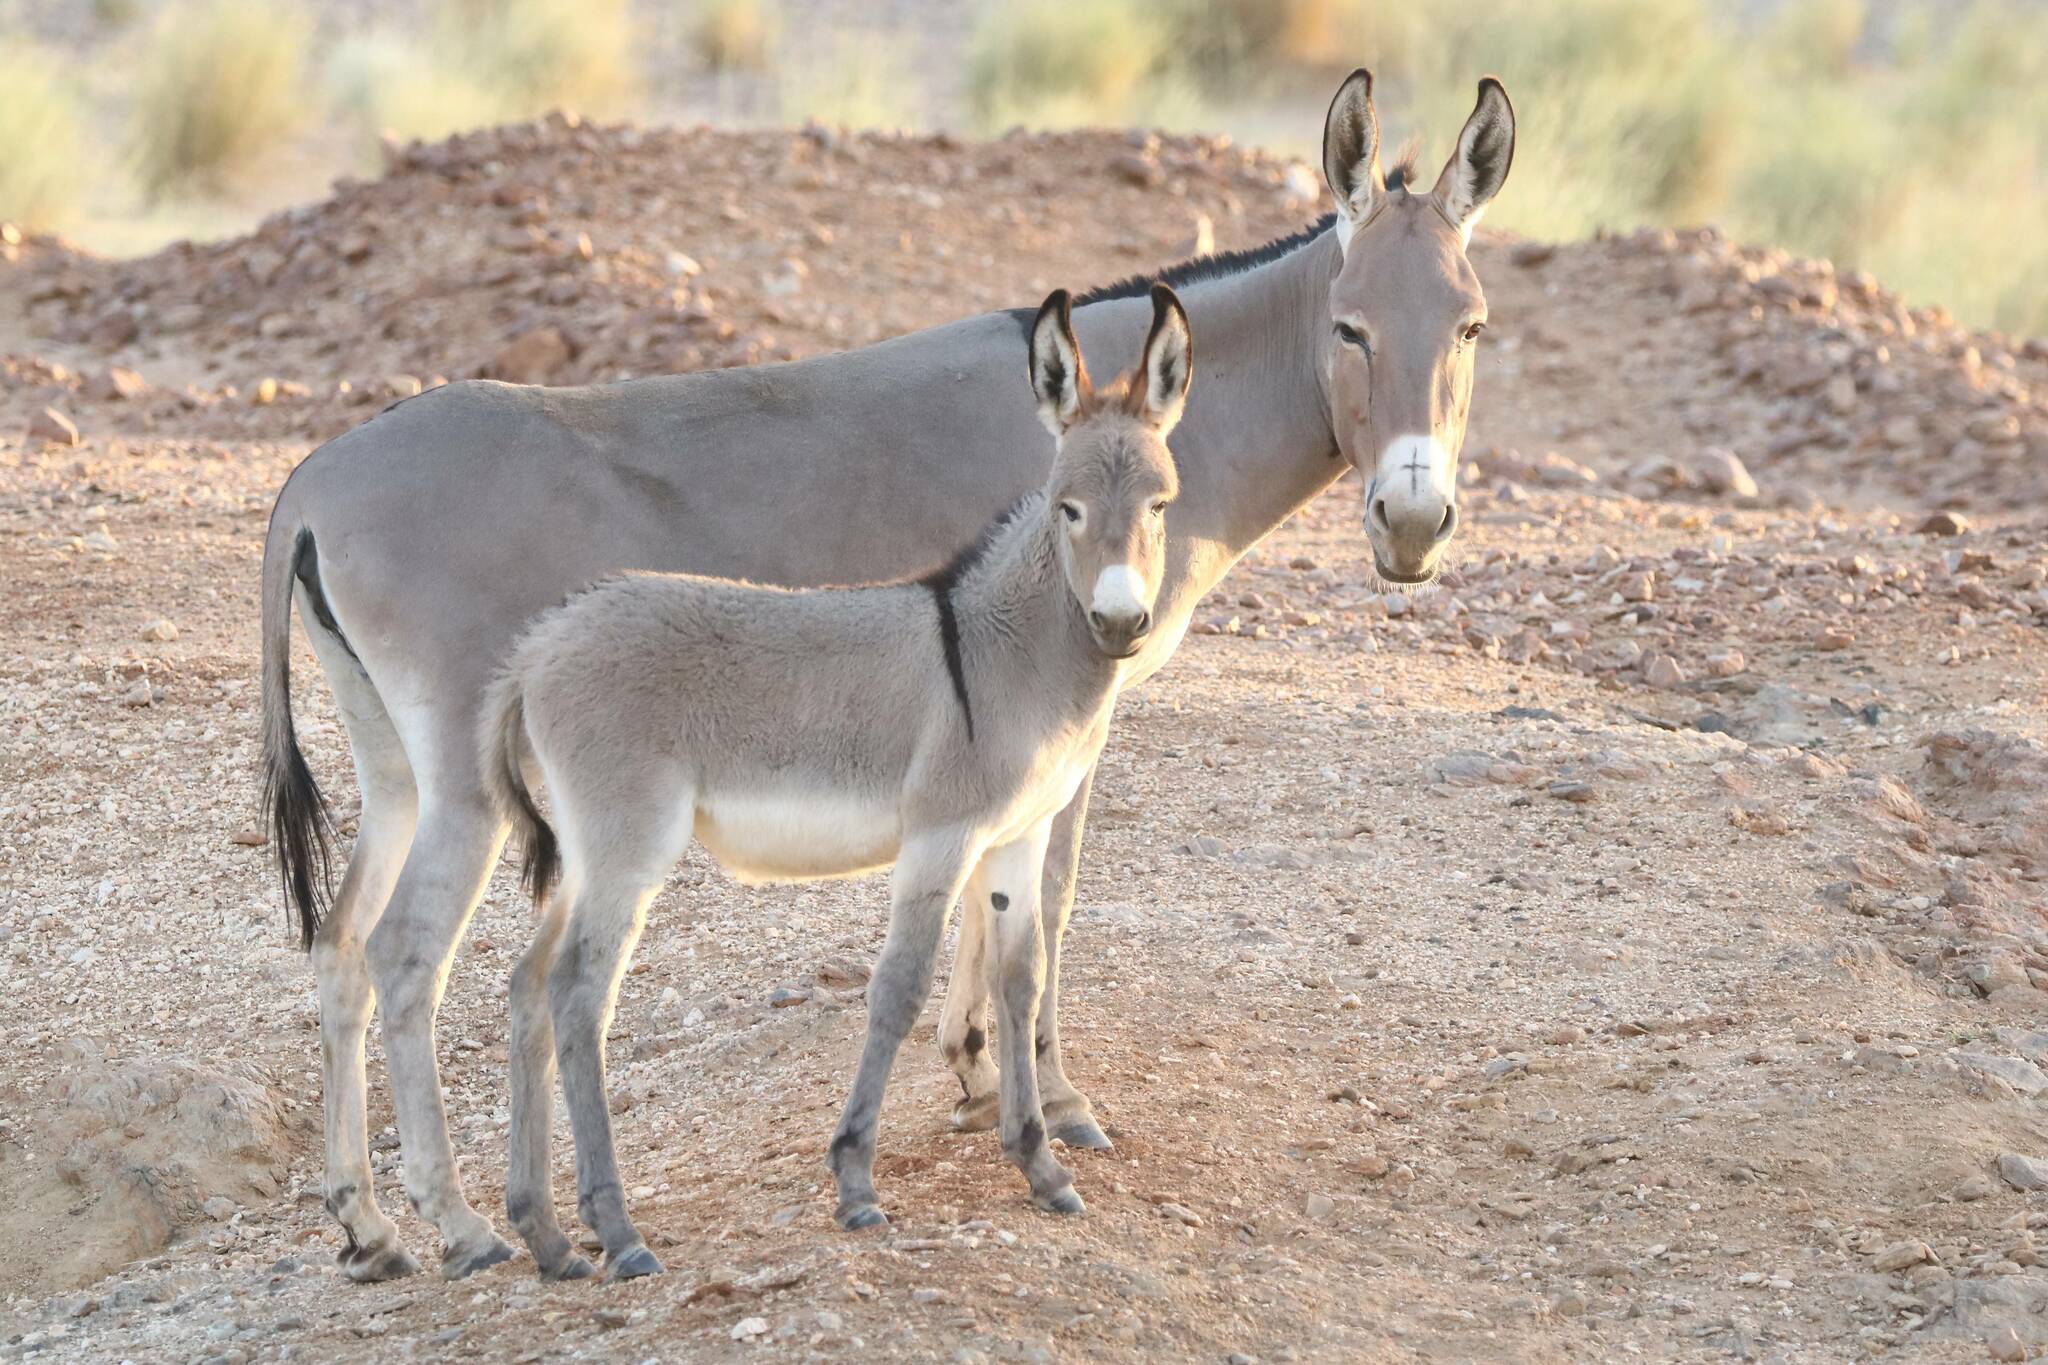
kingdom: Animalia
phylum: Chordata
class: Mammalia
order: Perissodactyla
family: Equidae
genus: Equus
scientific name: Equus asinus
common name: Ass
